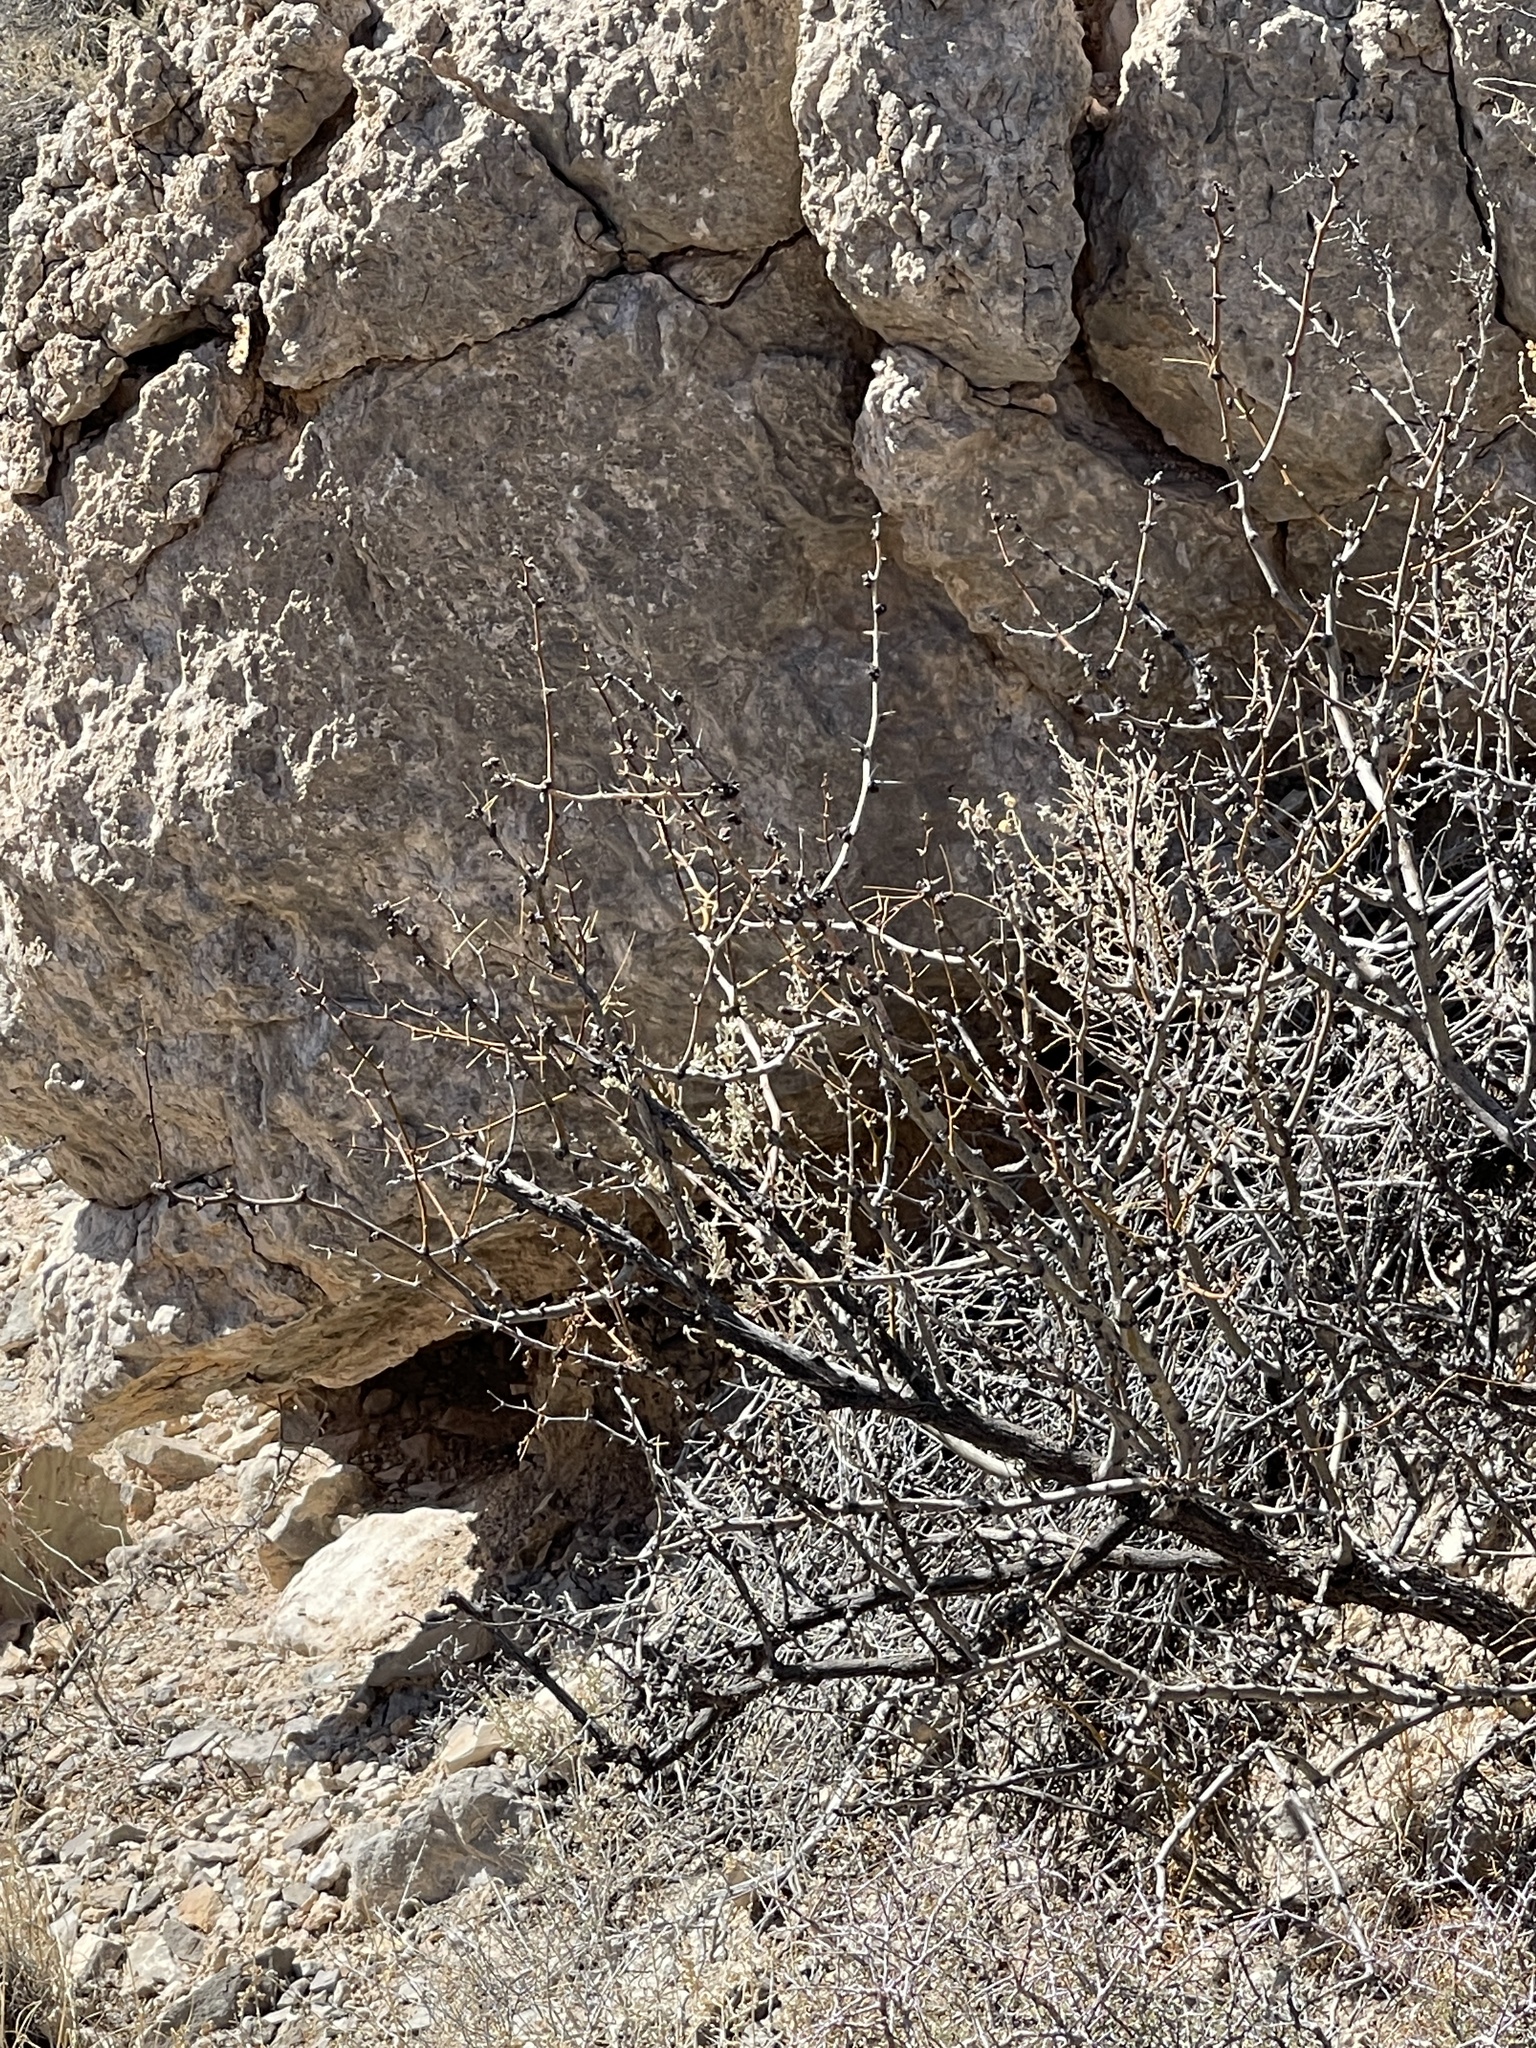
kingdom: Plantae
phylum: Tracheophyta
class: Magnoliopsida
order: Fabales
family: Fabaceae
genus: Prosopis
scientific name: Prosopis glandulosa
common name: Honey mesquite
